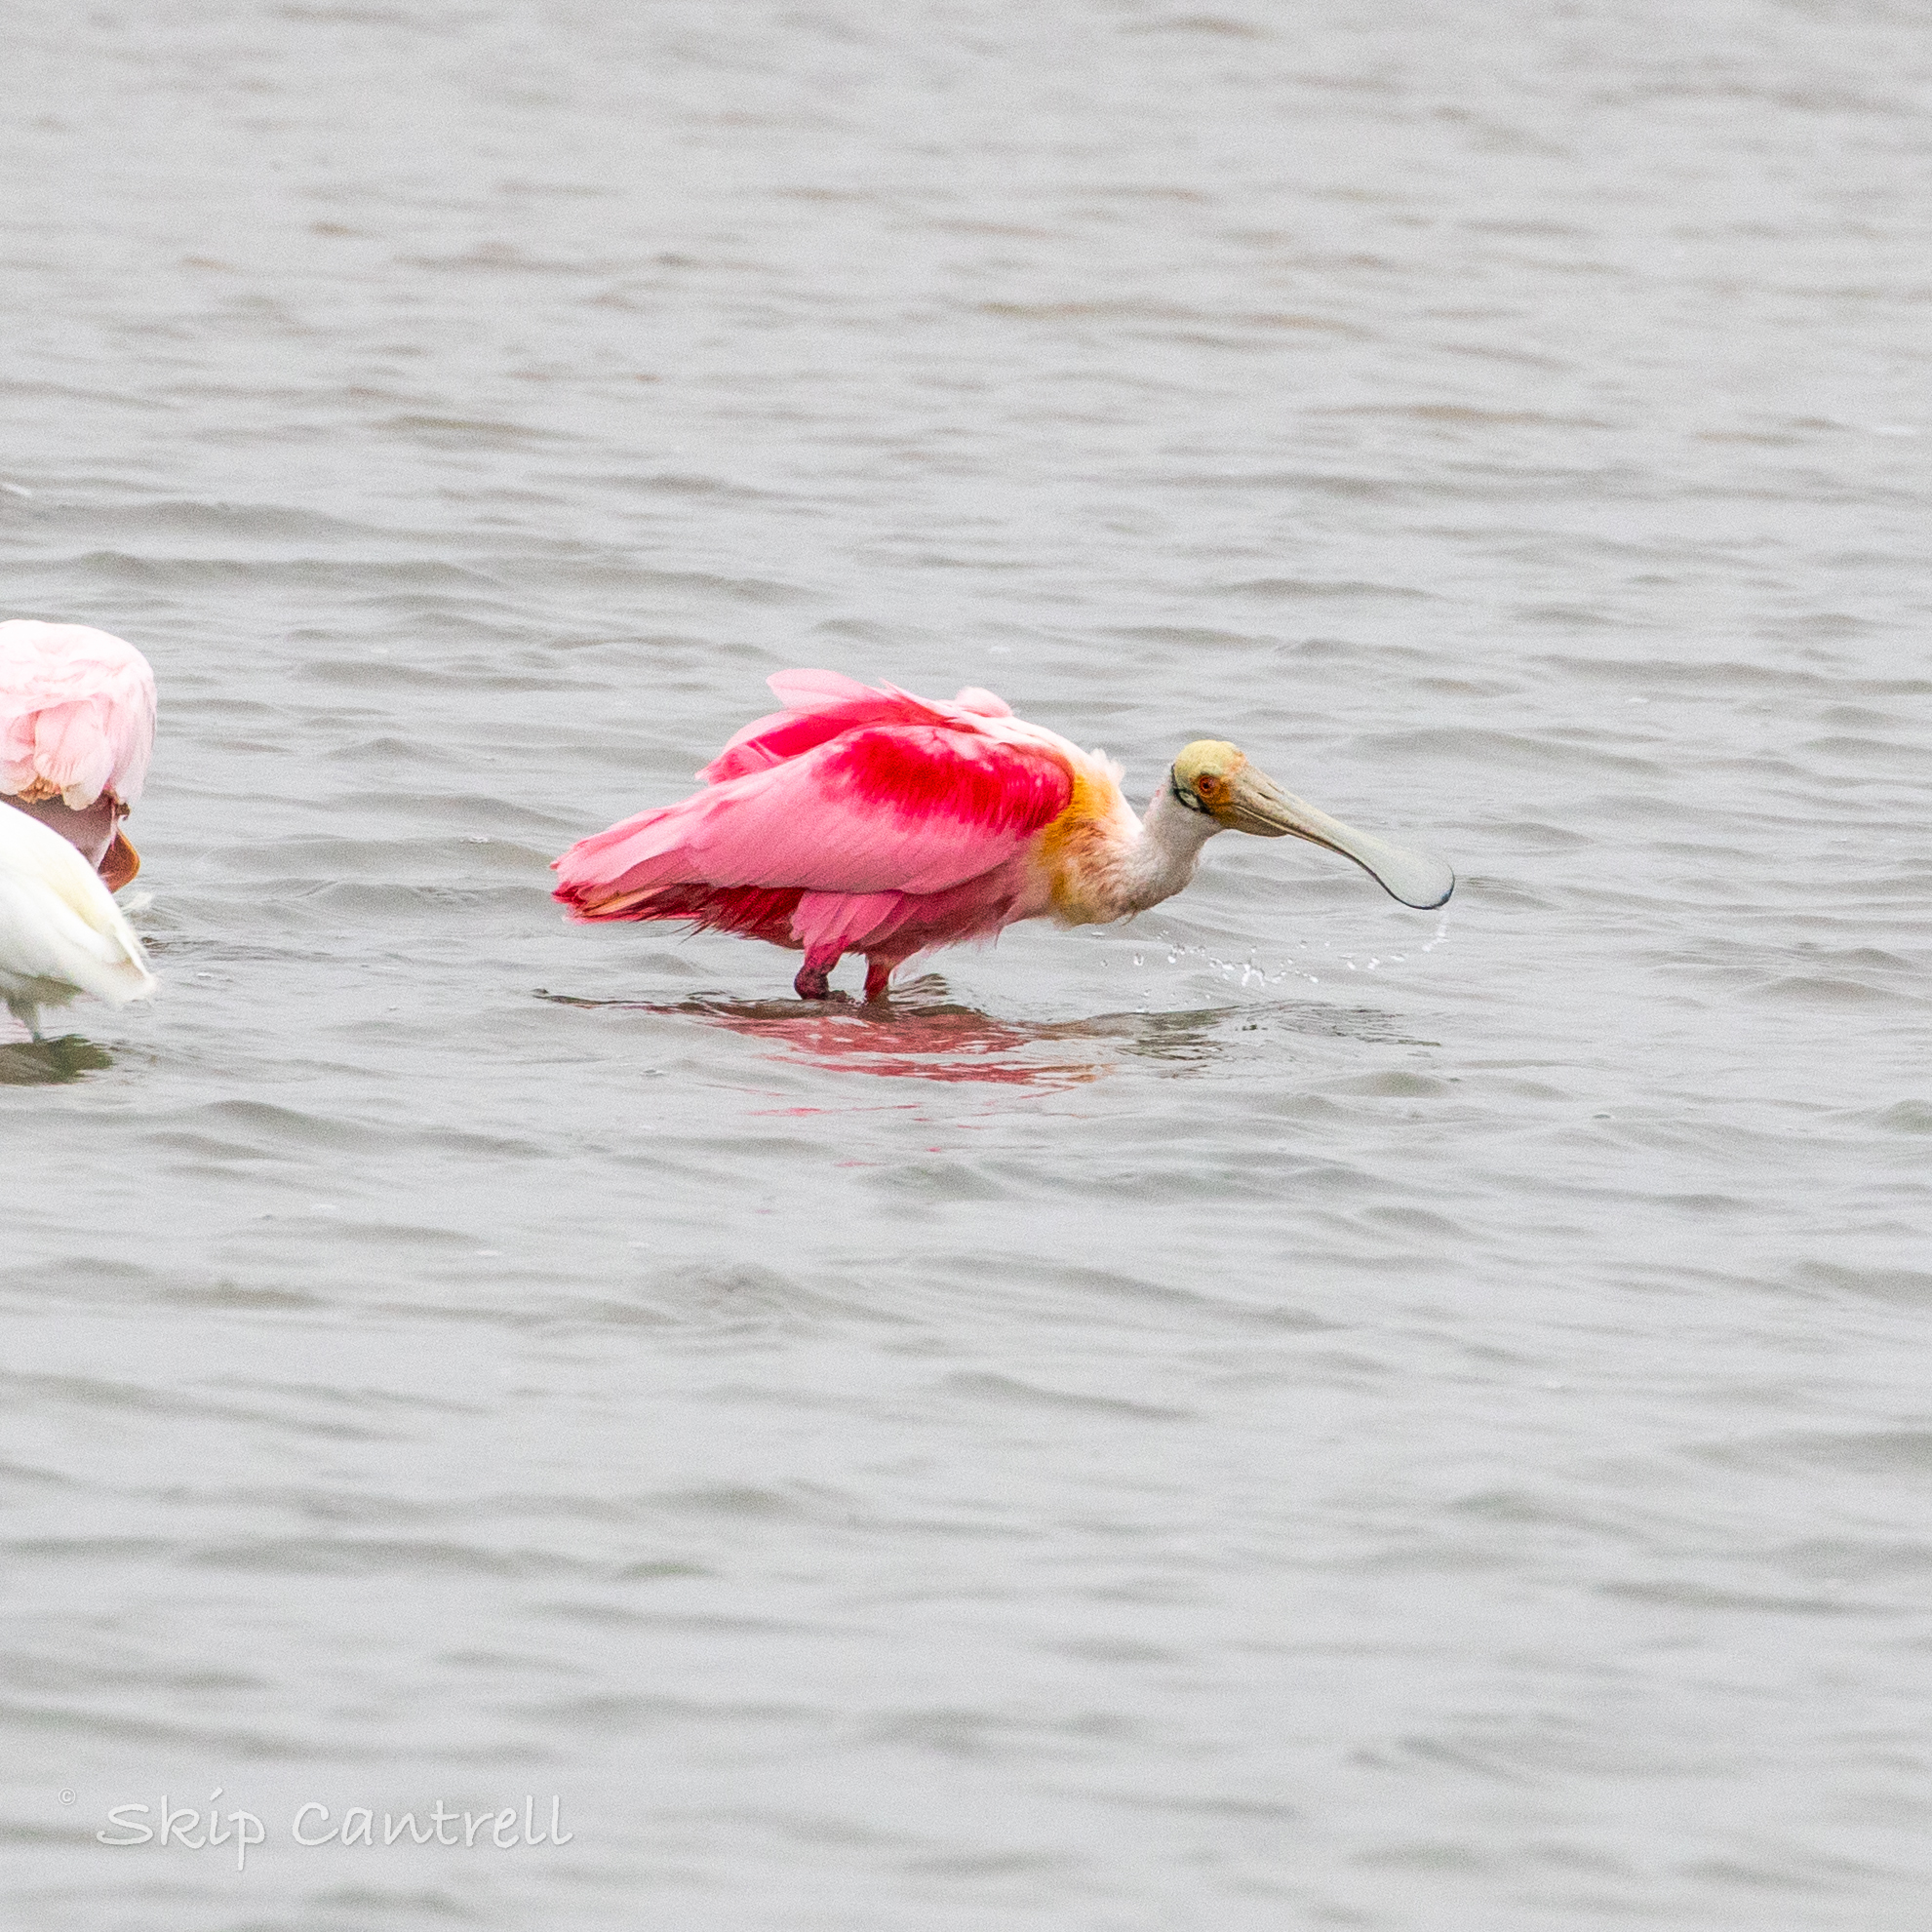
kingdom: Animalia
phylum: Chordata
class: Aves
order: Pelecaniformes
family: Threskiornithidae
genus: Platalea
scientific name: Platalea ajaja
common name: Roseate spoonbill
